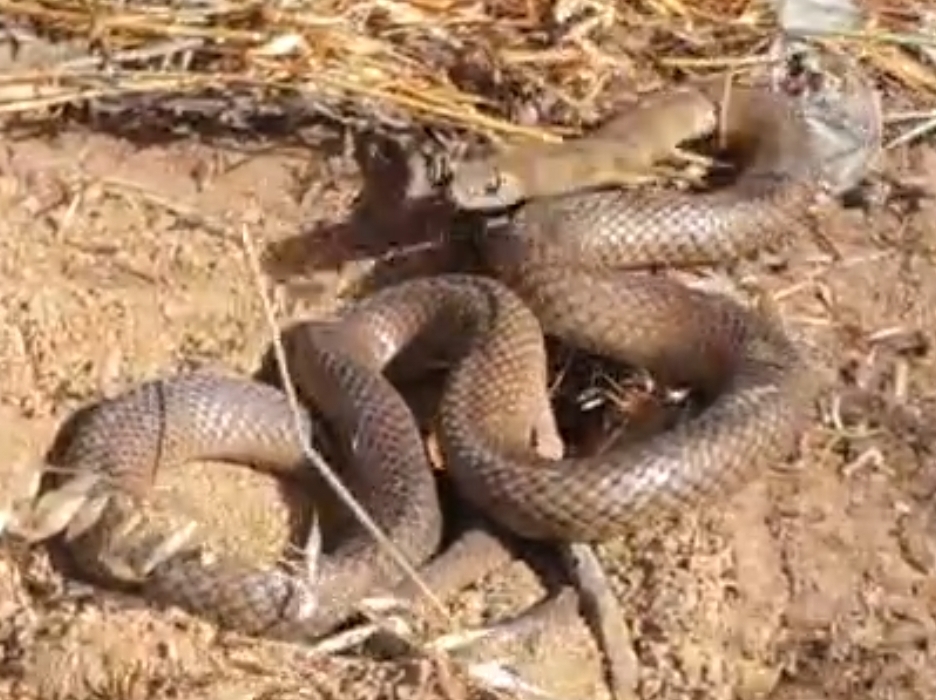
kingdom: Animalia
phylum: Chordata
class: Squamata
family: Elapidae
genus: Pseudonaja
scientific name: Pseudonaja textilis
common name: Eastern brown snake
